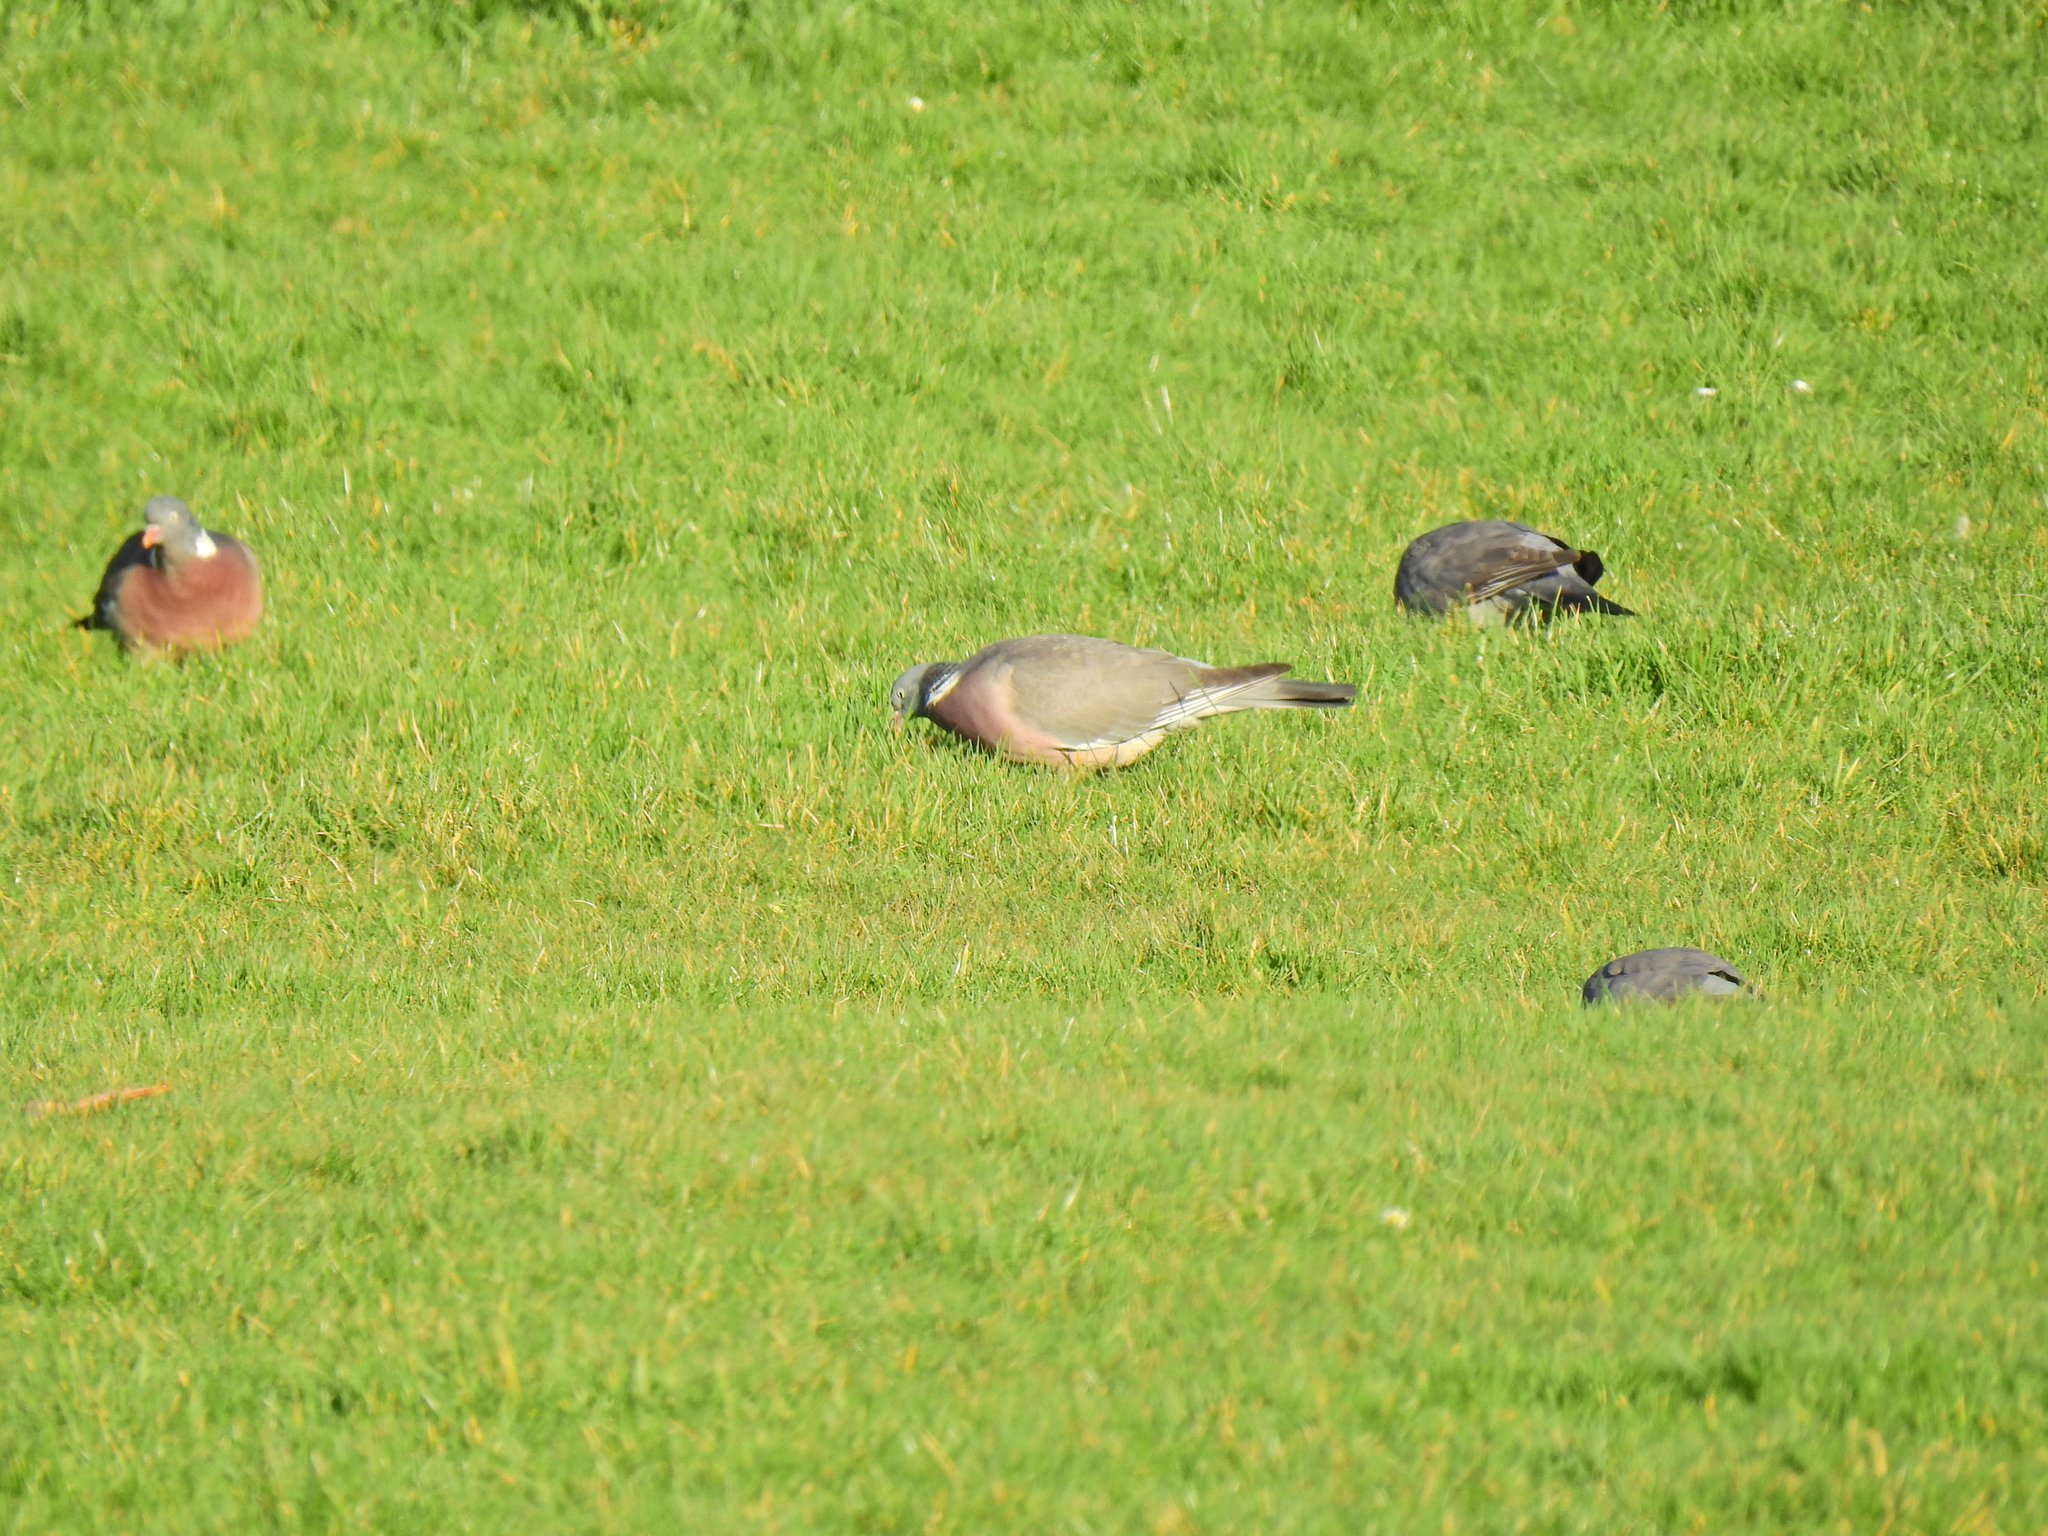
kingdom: Animalia
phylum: Chordata
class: Aves
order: Columbiformes
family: Columbidae
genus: Columba
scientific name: Columba palumbus
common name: Common wood pigeon
